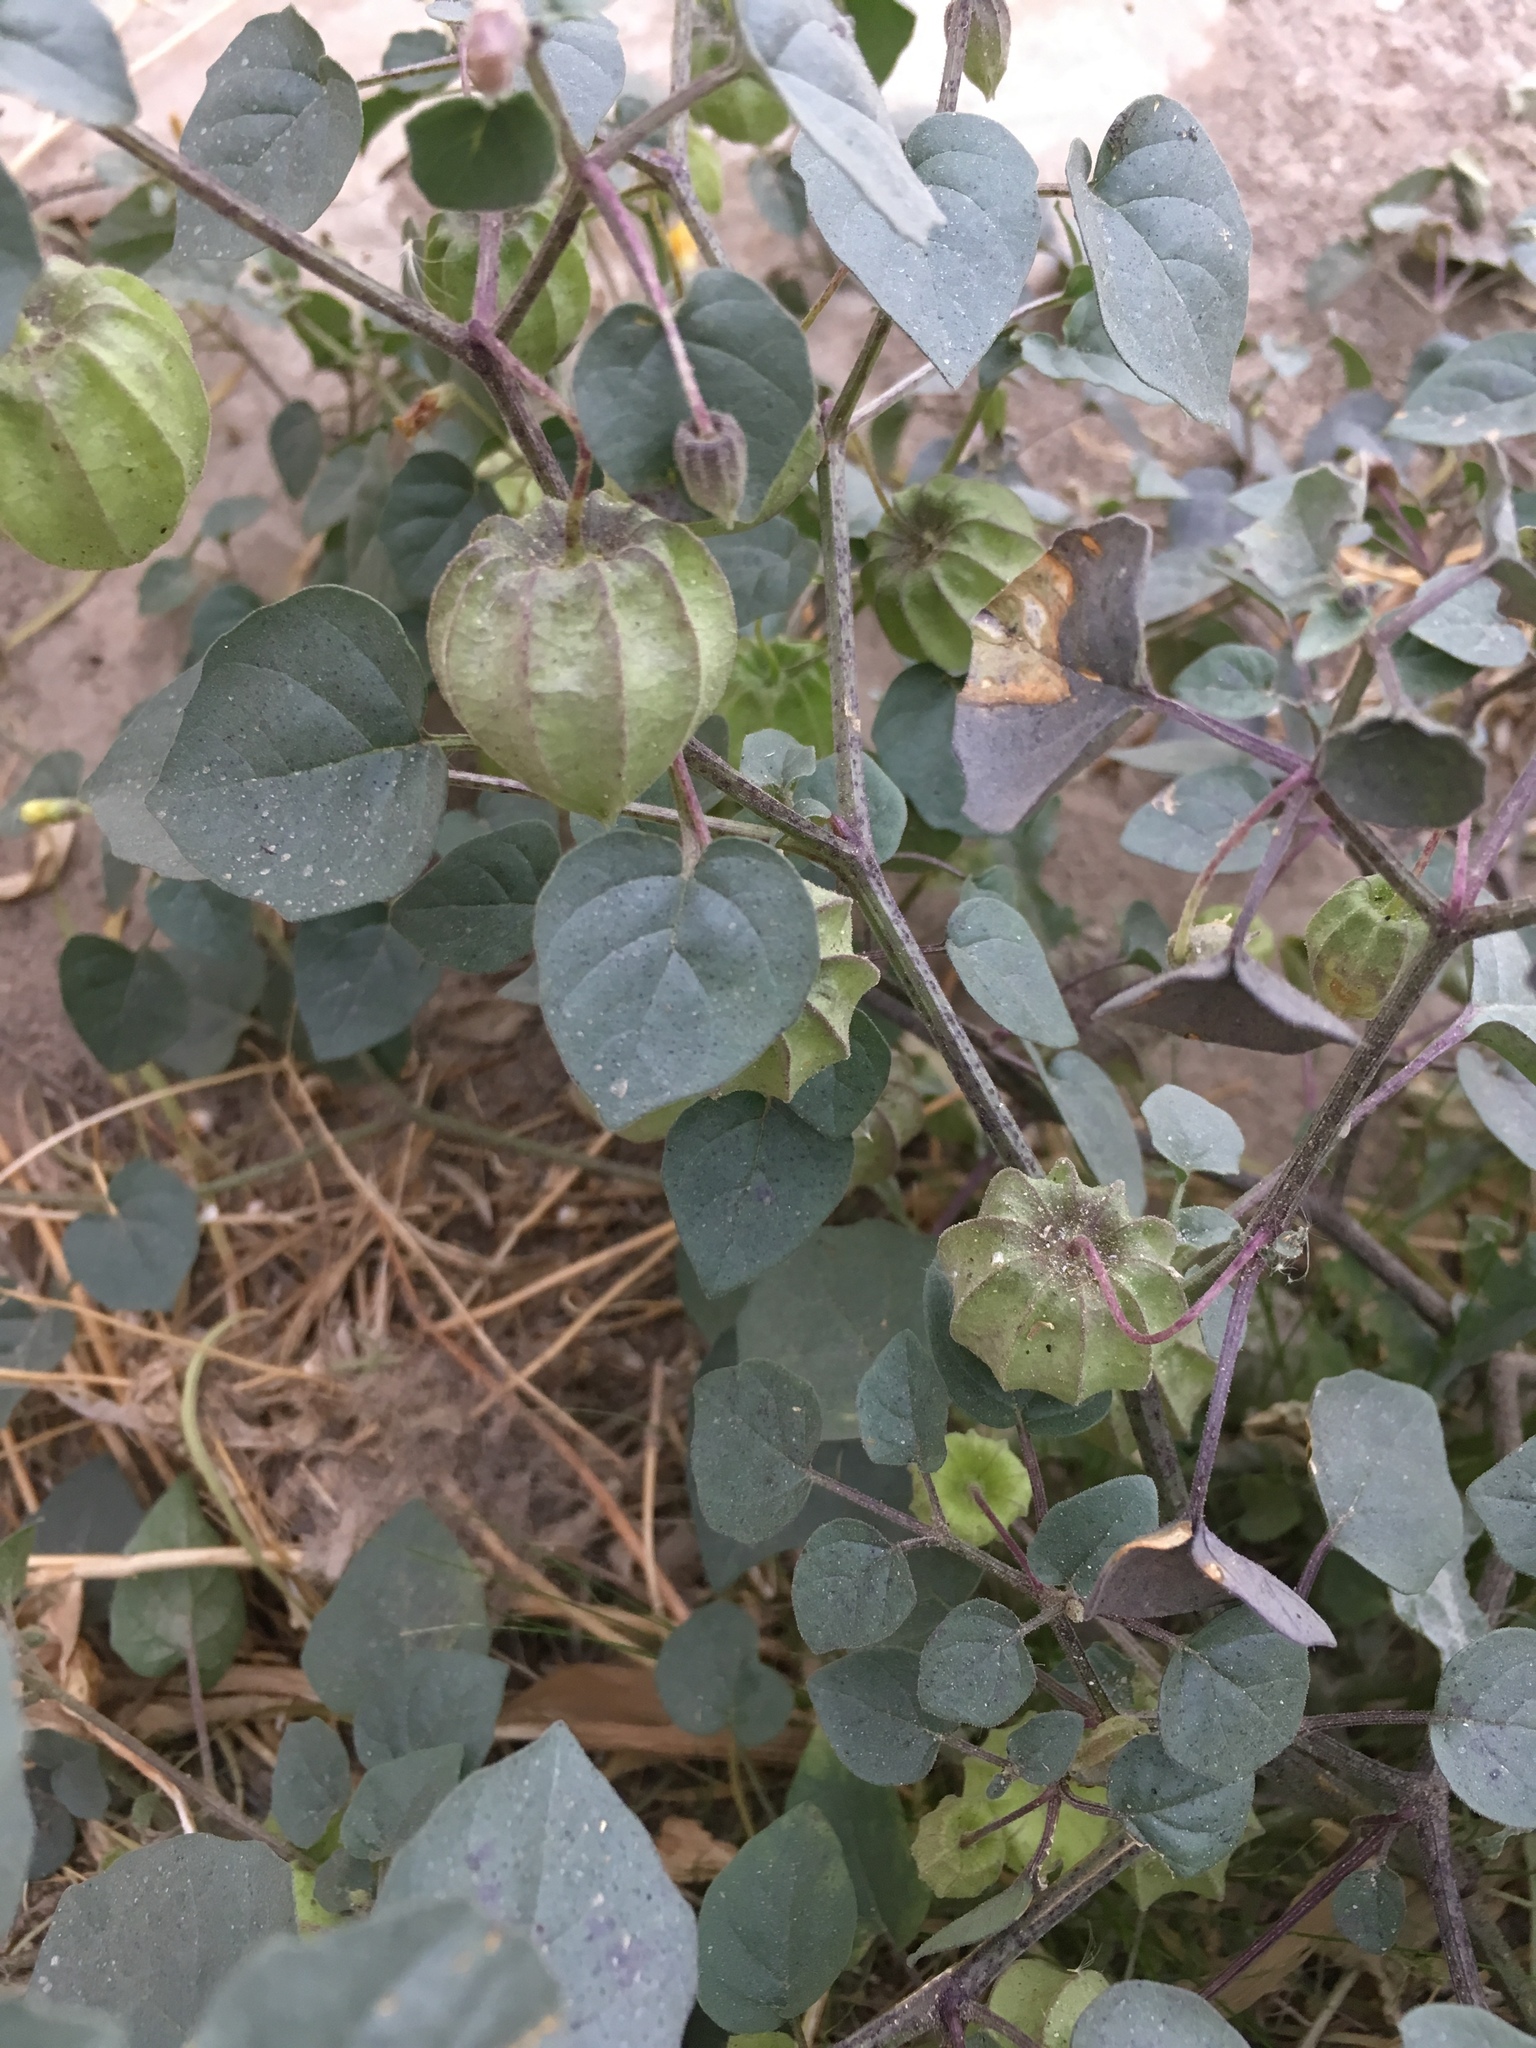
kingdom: Plantae
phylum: Tracheophyta
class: Magnoliopsida
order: Solanales
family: Solanaceae
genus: Physalis
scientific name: Physalis crassifolia
